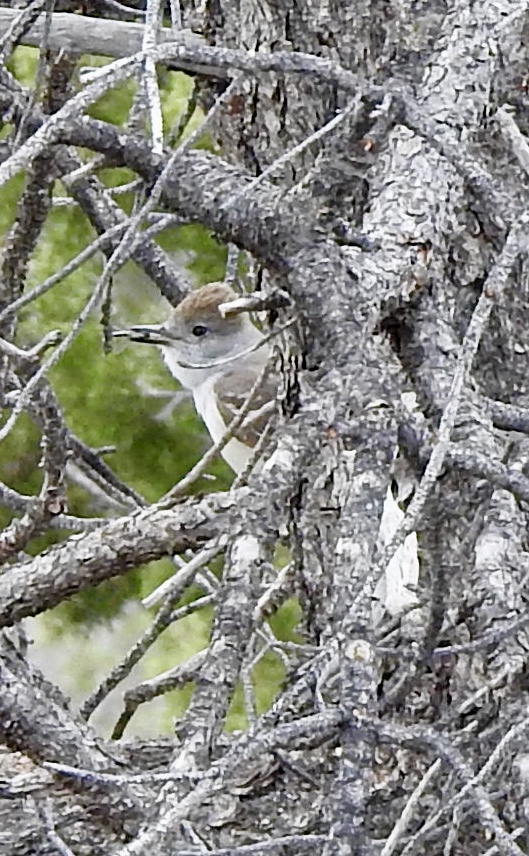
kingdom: Animalia
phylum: Chordata
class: Aves
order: Passeriformes
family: Tyrannidae
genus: Myiarchus
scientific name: Myiarchus cinerascens
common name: Ash-throated flycatcher
